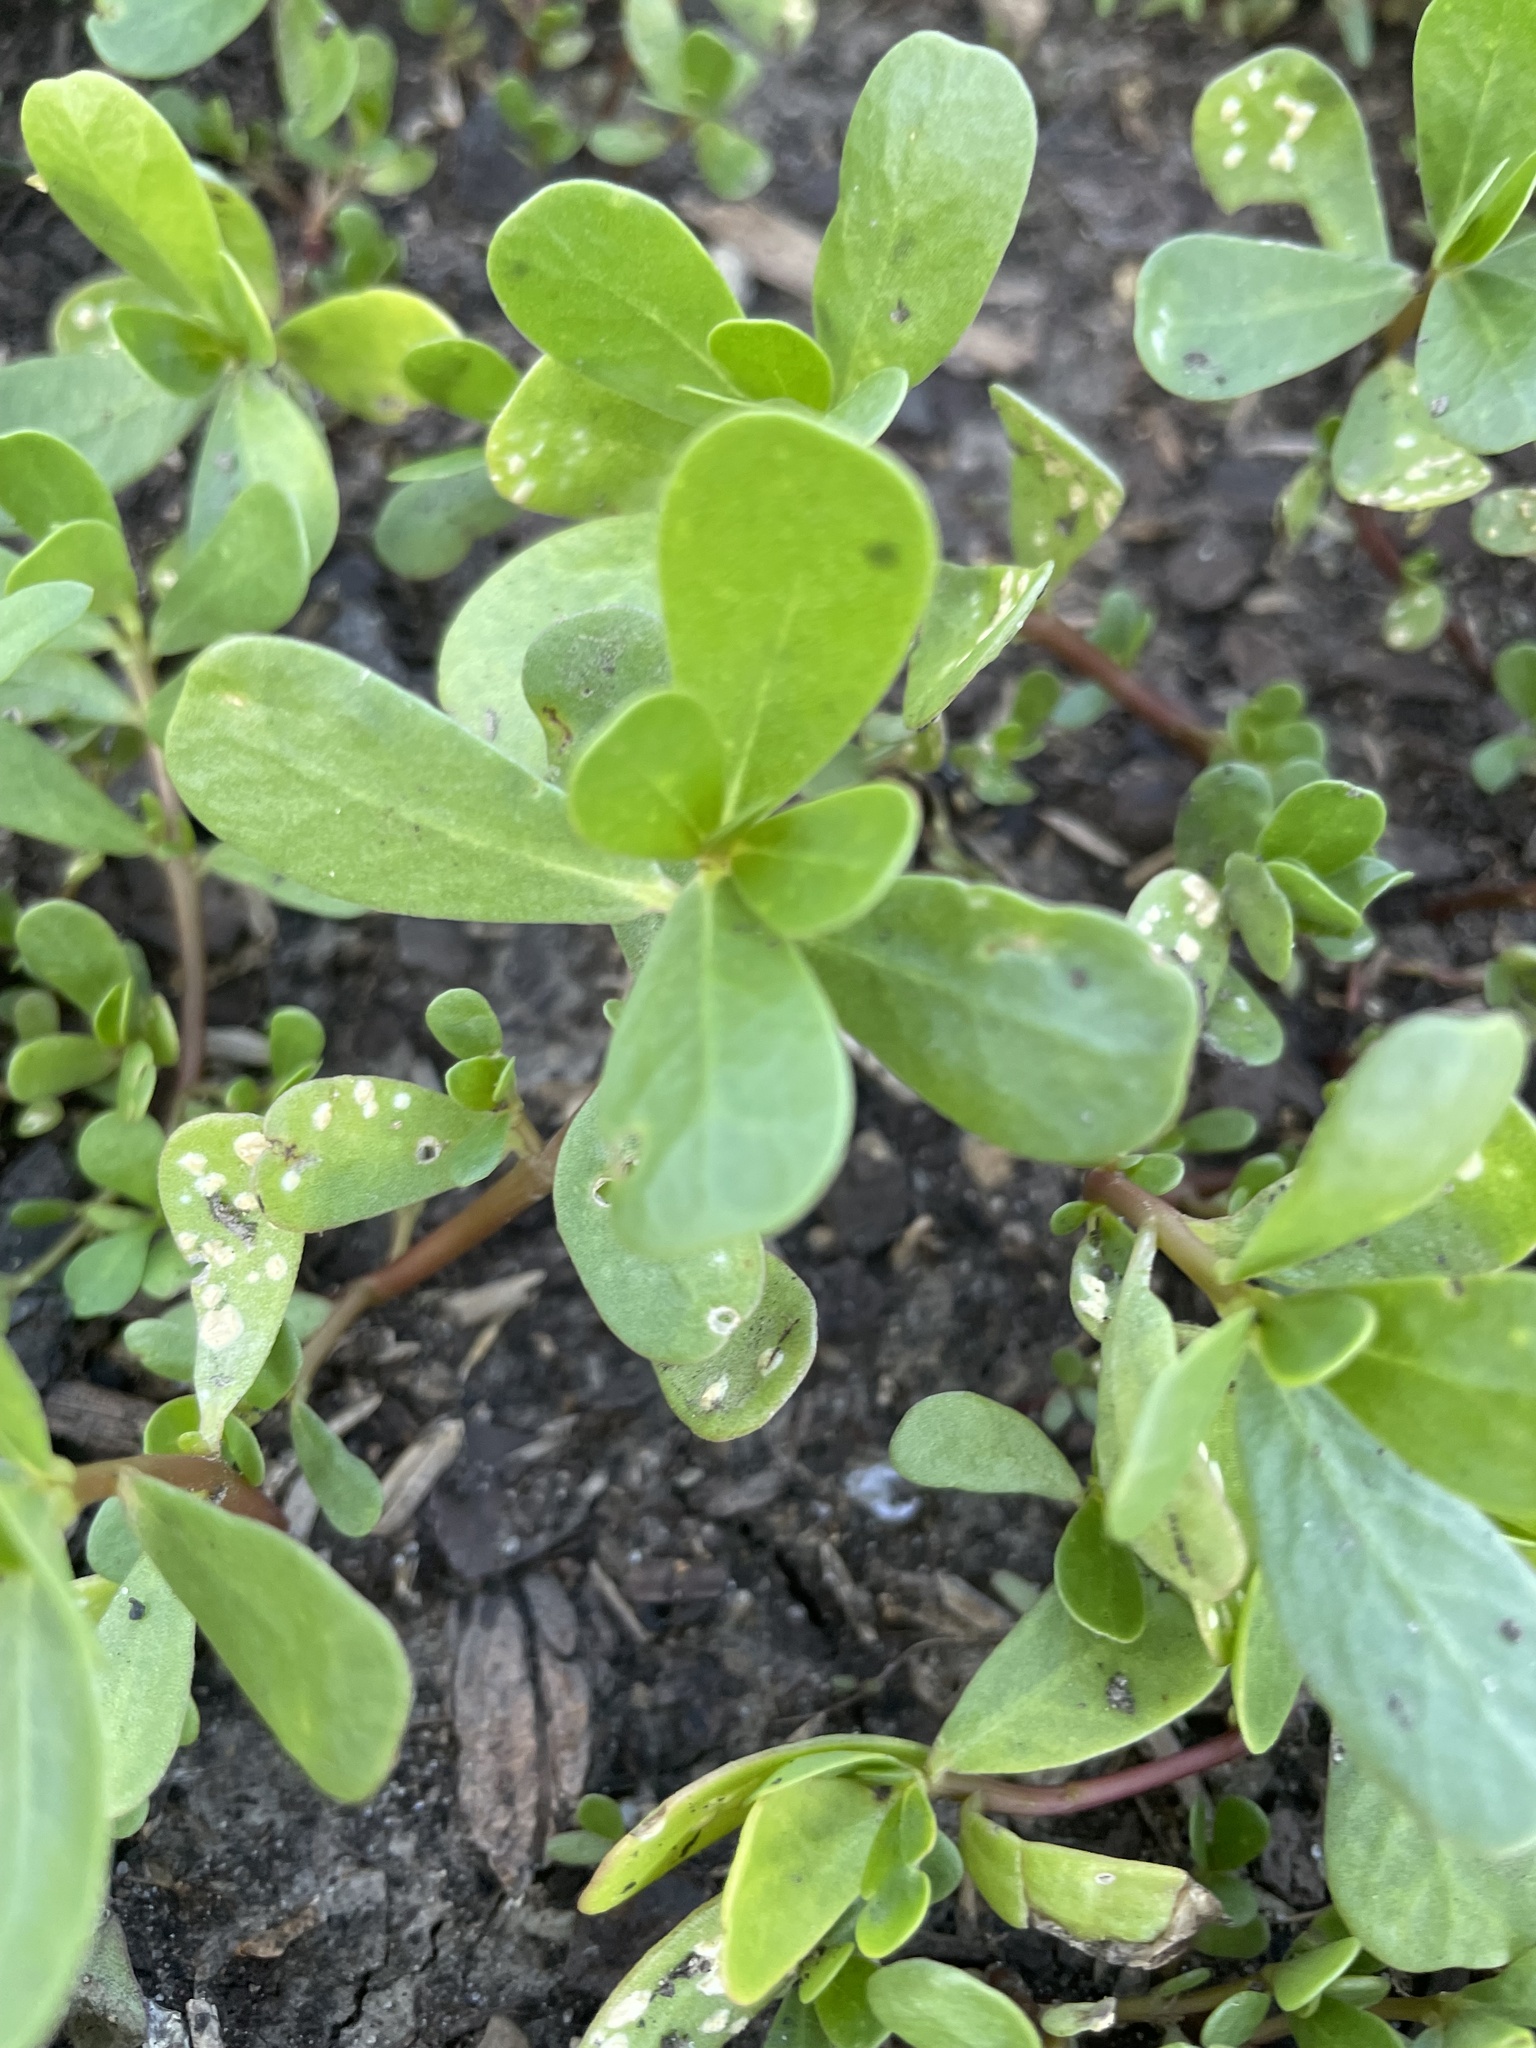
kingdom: Plantae
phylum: Tracheophyta
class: Magnoliopsida
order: Caryophyllales
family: Portulacaceae
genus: Portulaca
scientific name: Portulaca oleracea
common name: Common purslane
